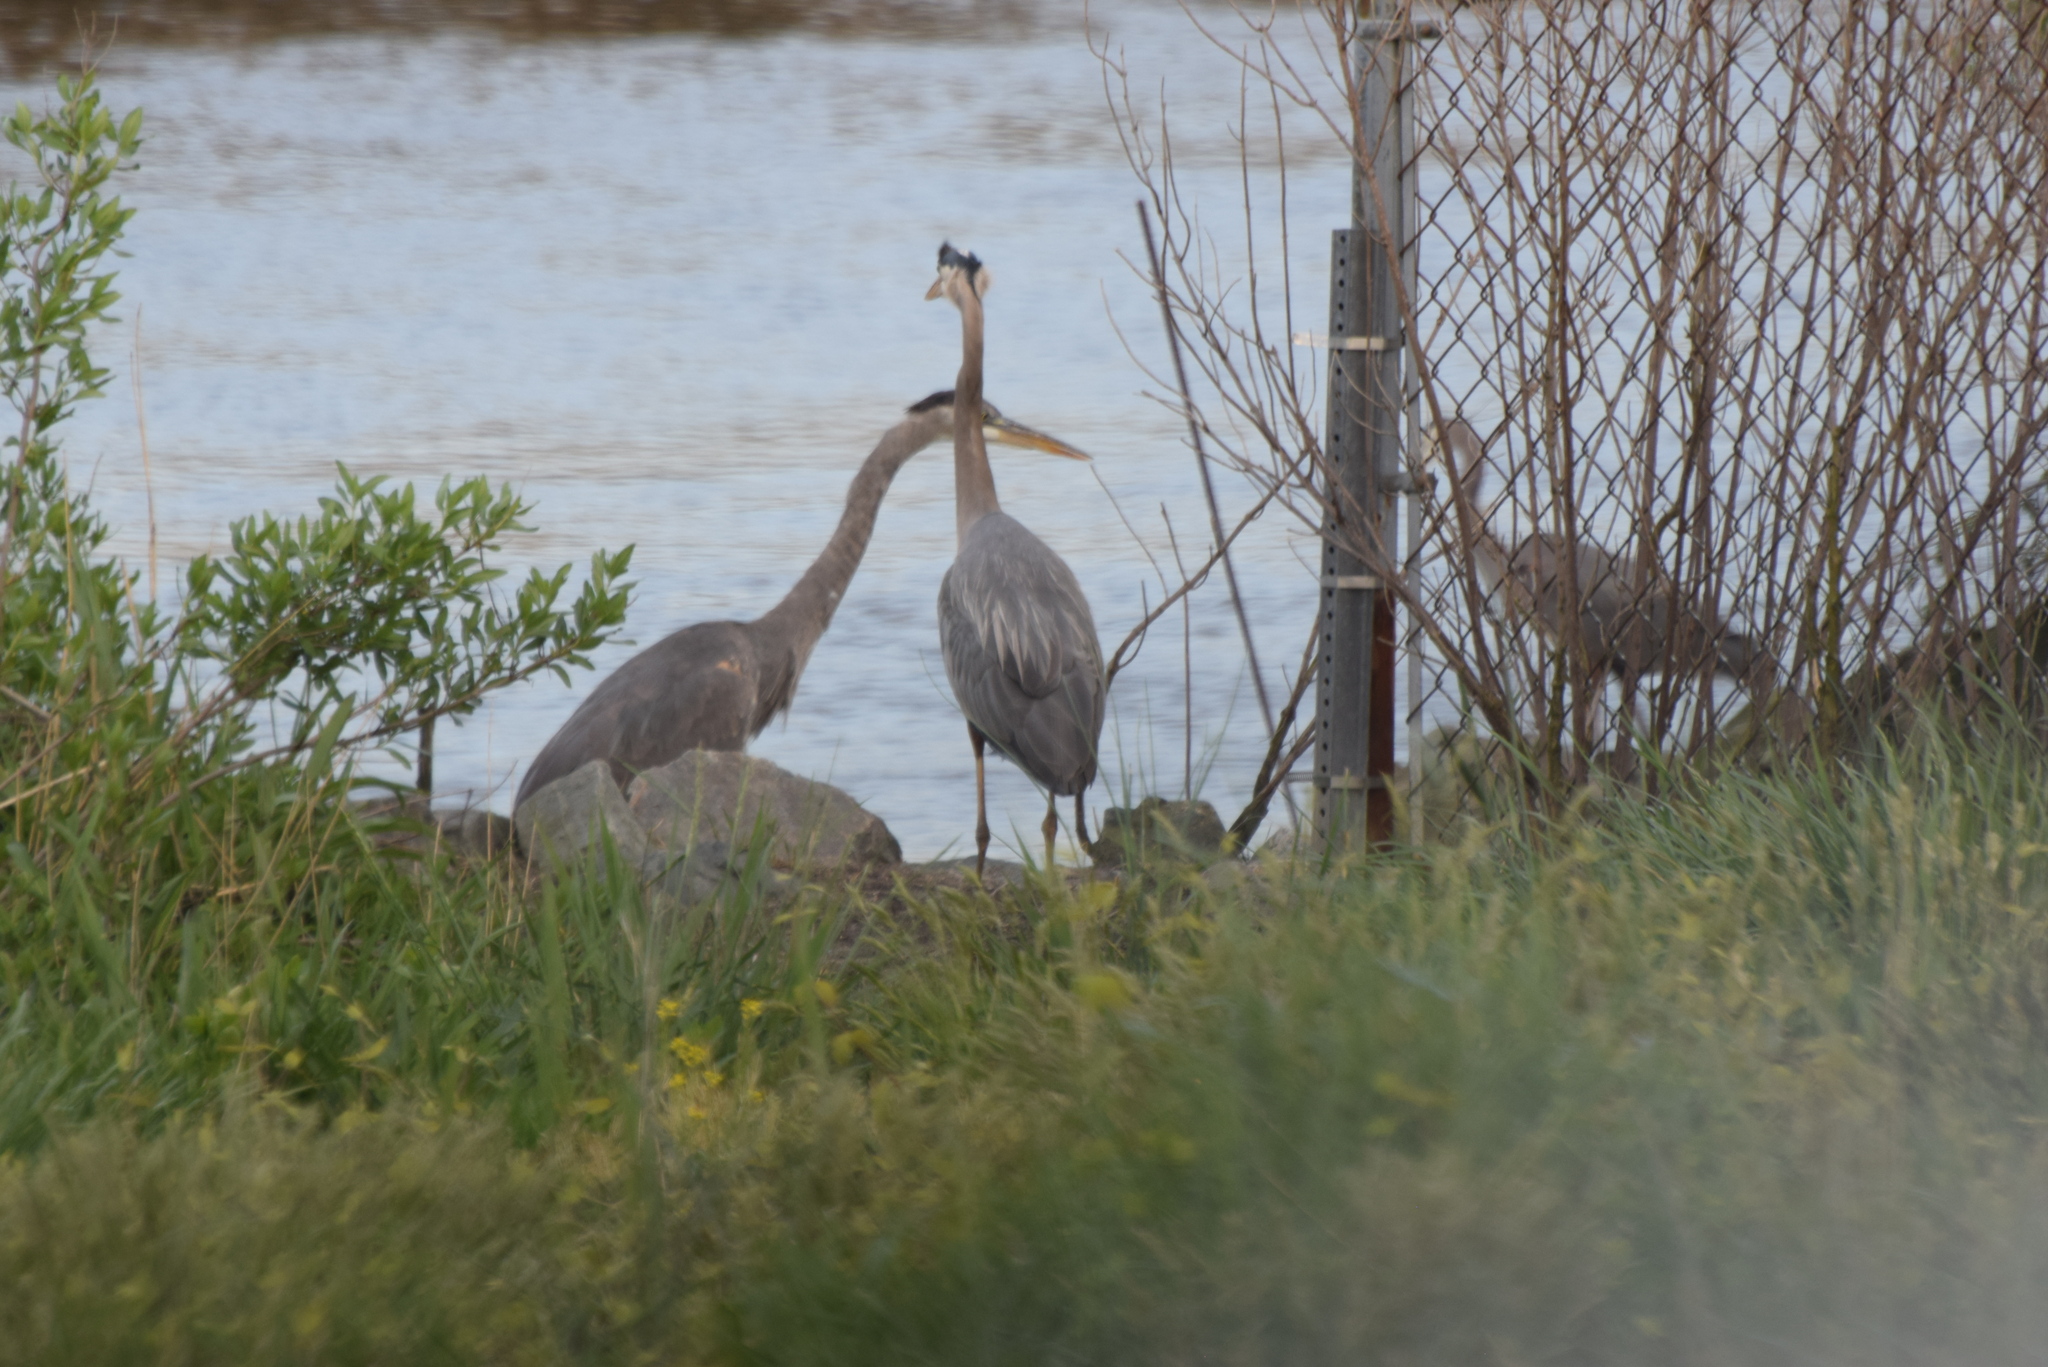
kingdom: Animalia
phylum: Chordata
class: Aves
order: Pelecaniformes
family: Ardeidae
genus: Ardea
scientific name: Ardea herodias
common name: Great blue heron
